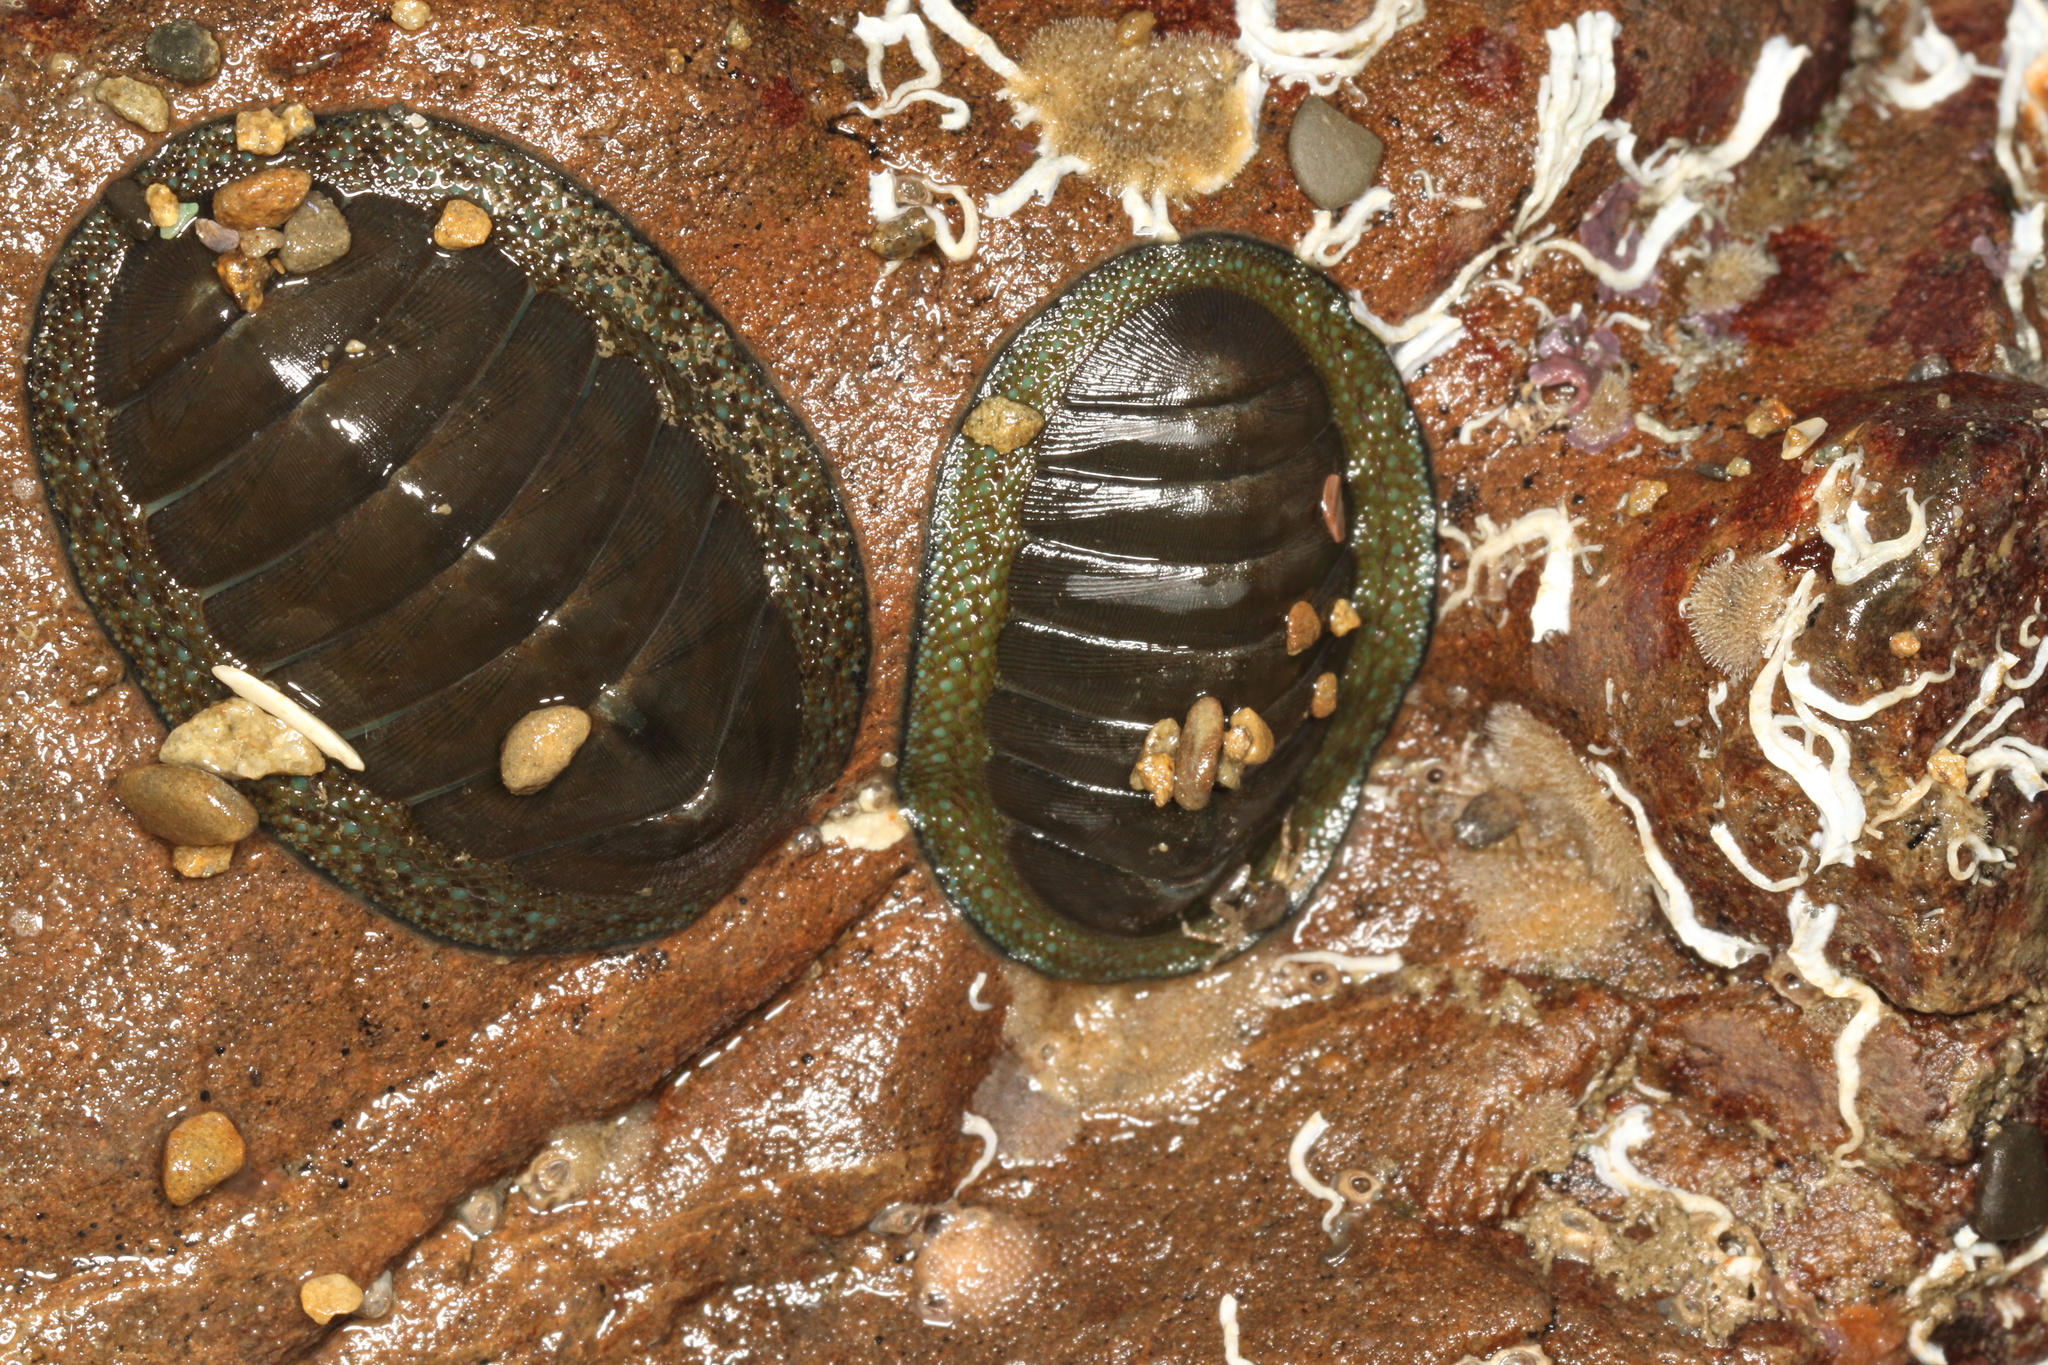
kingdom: Animalia
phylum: Mollusca
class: Polyplacophora
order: Chitonida
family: Chitonidae
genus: Chiton
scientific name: Chiton glaucus
